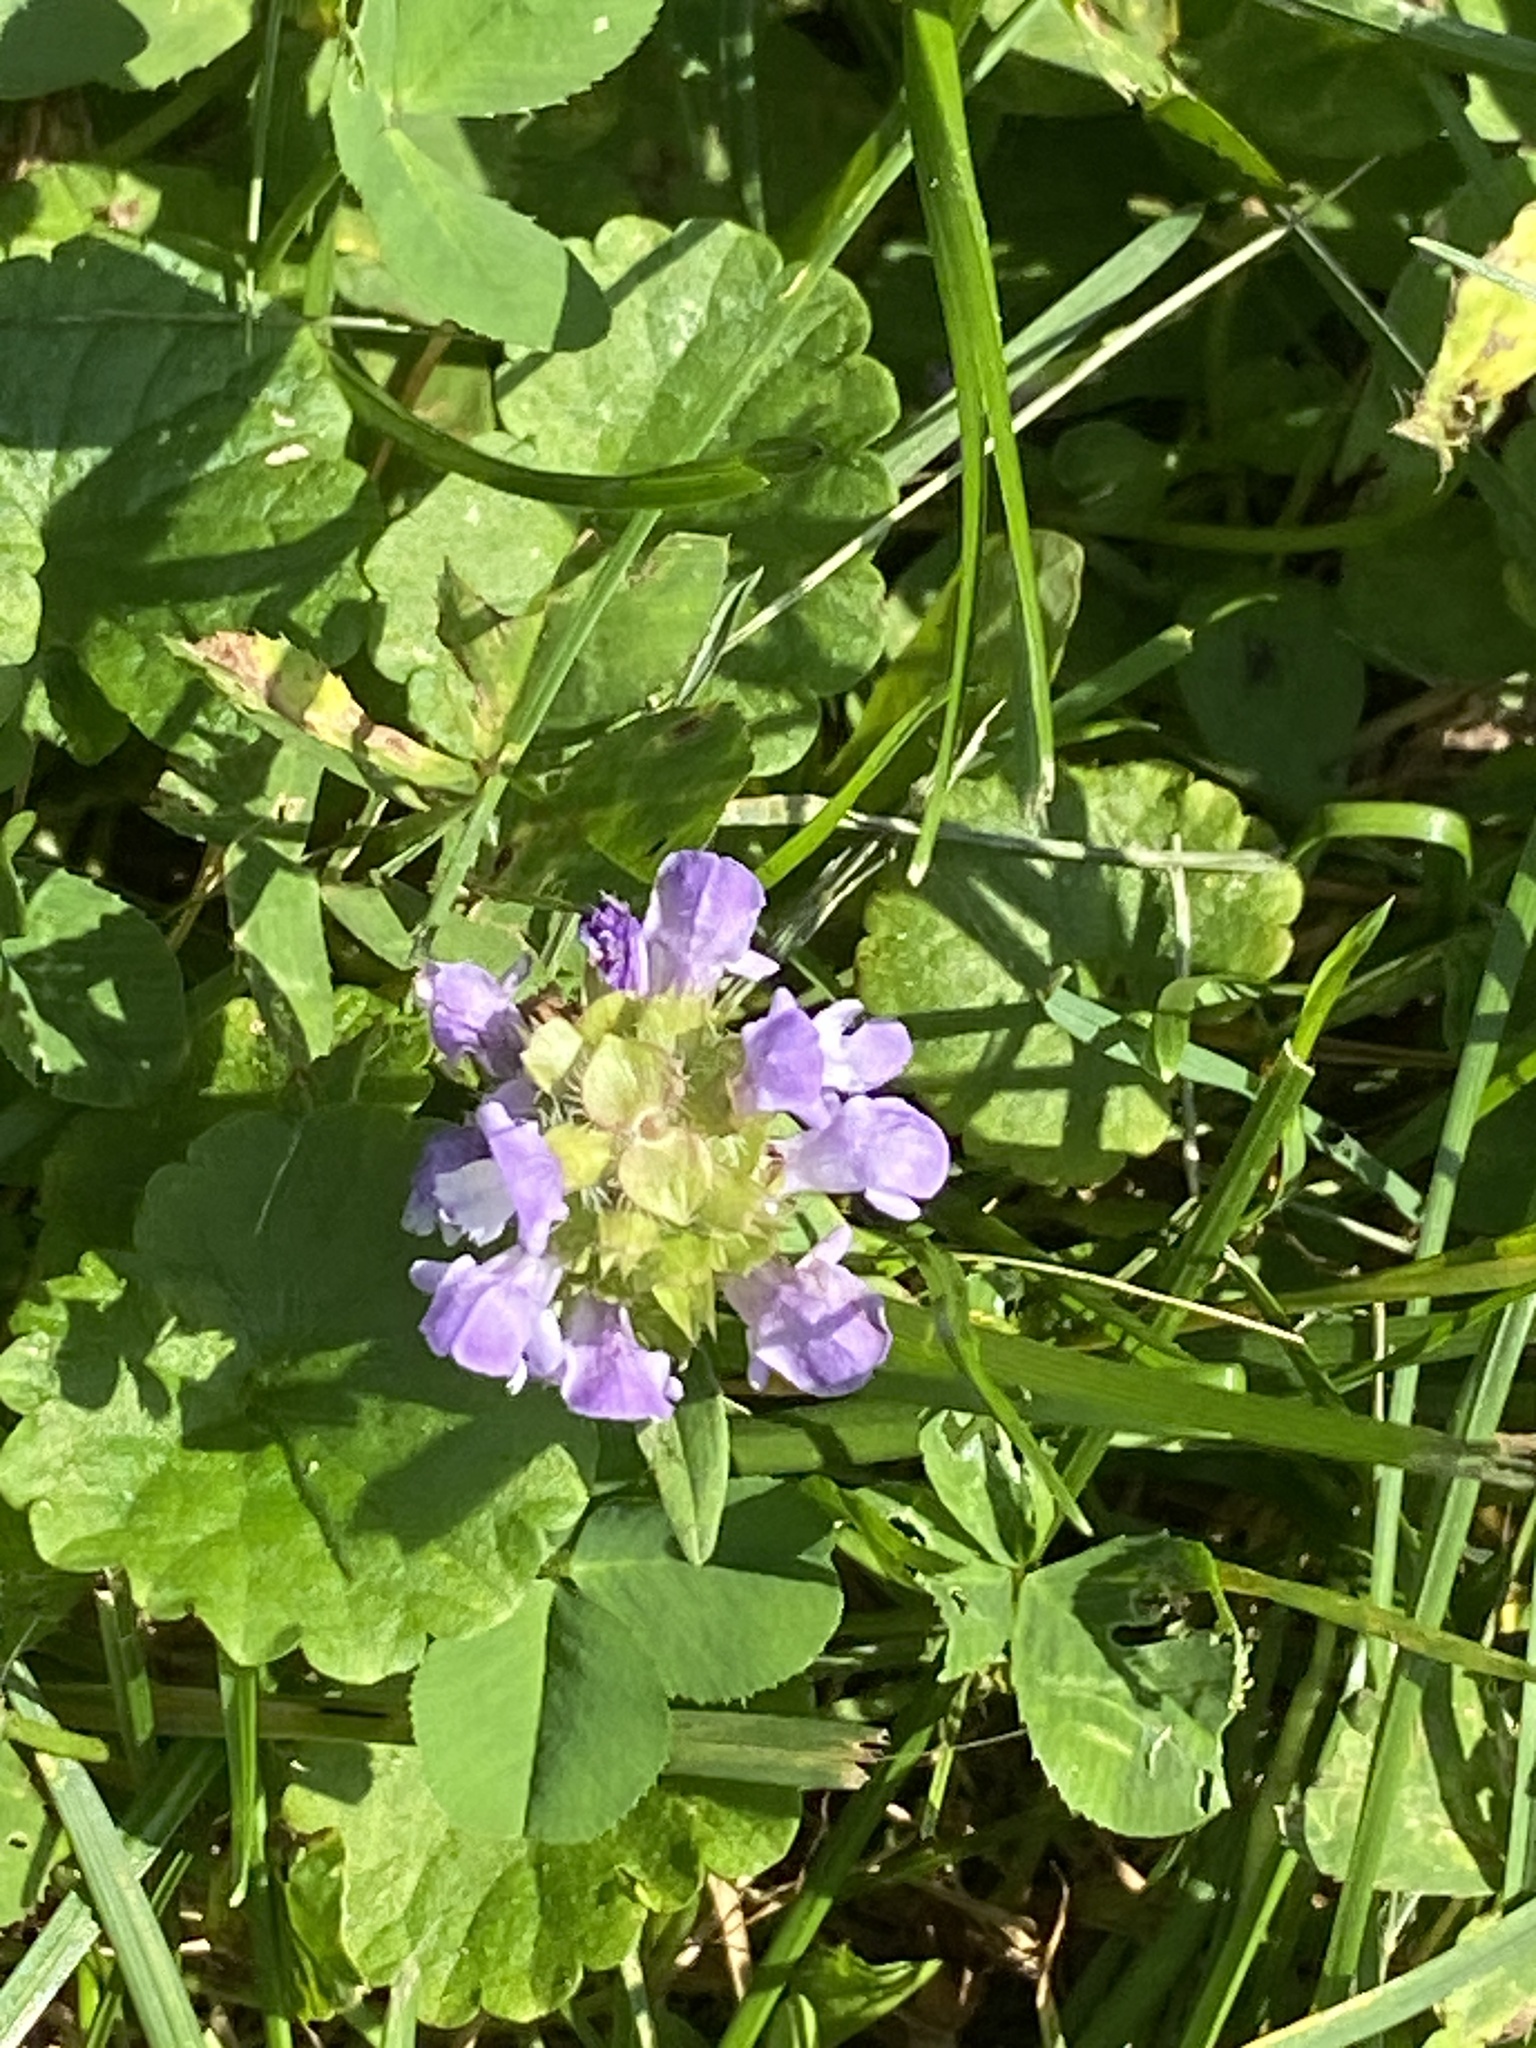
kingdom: Plantae
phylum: Tracheophyta
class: Magnoliopsida
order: Lamiales
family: Lamiaceae
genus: Prunella
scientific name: Prunella vulgaris
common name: Heal-all
